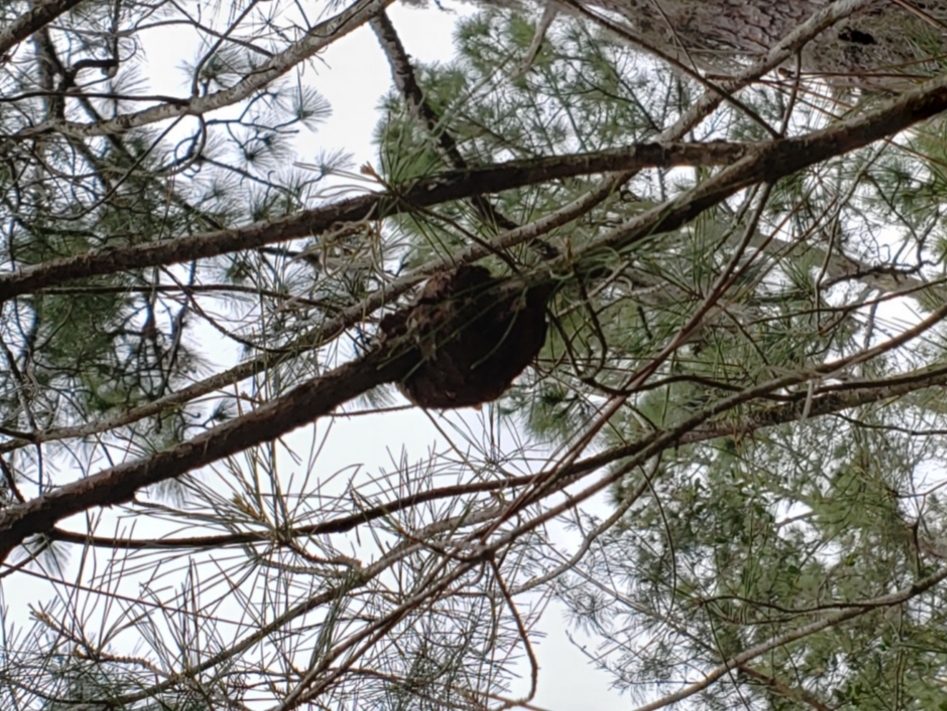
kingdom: Fungi
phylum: Basidiomycota
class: Pucciniomycetes
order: Pucciniales
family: Cronartiaceae
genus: Cronartium
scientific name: Cronartium quercuum
